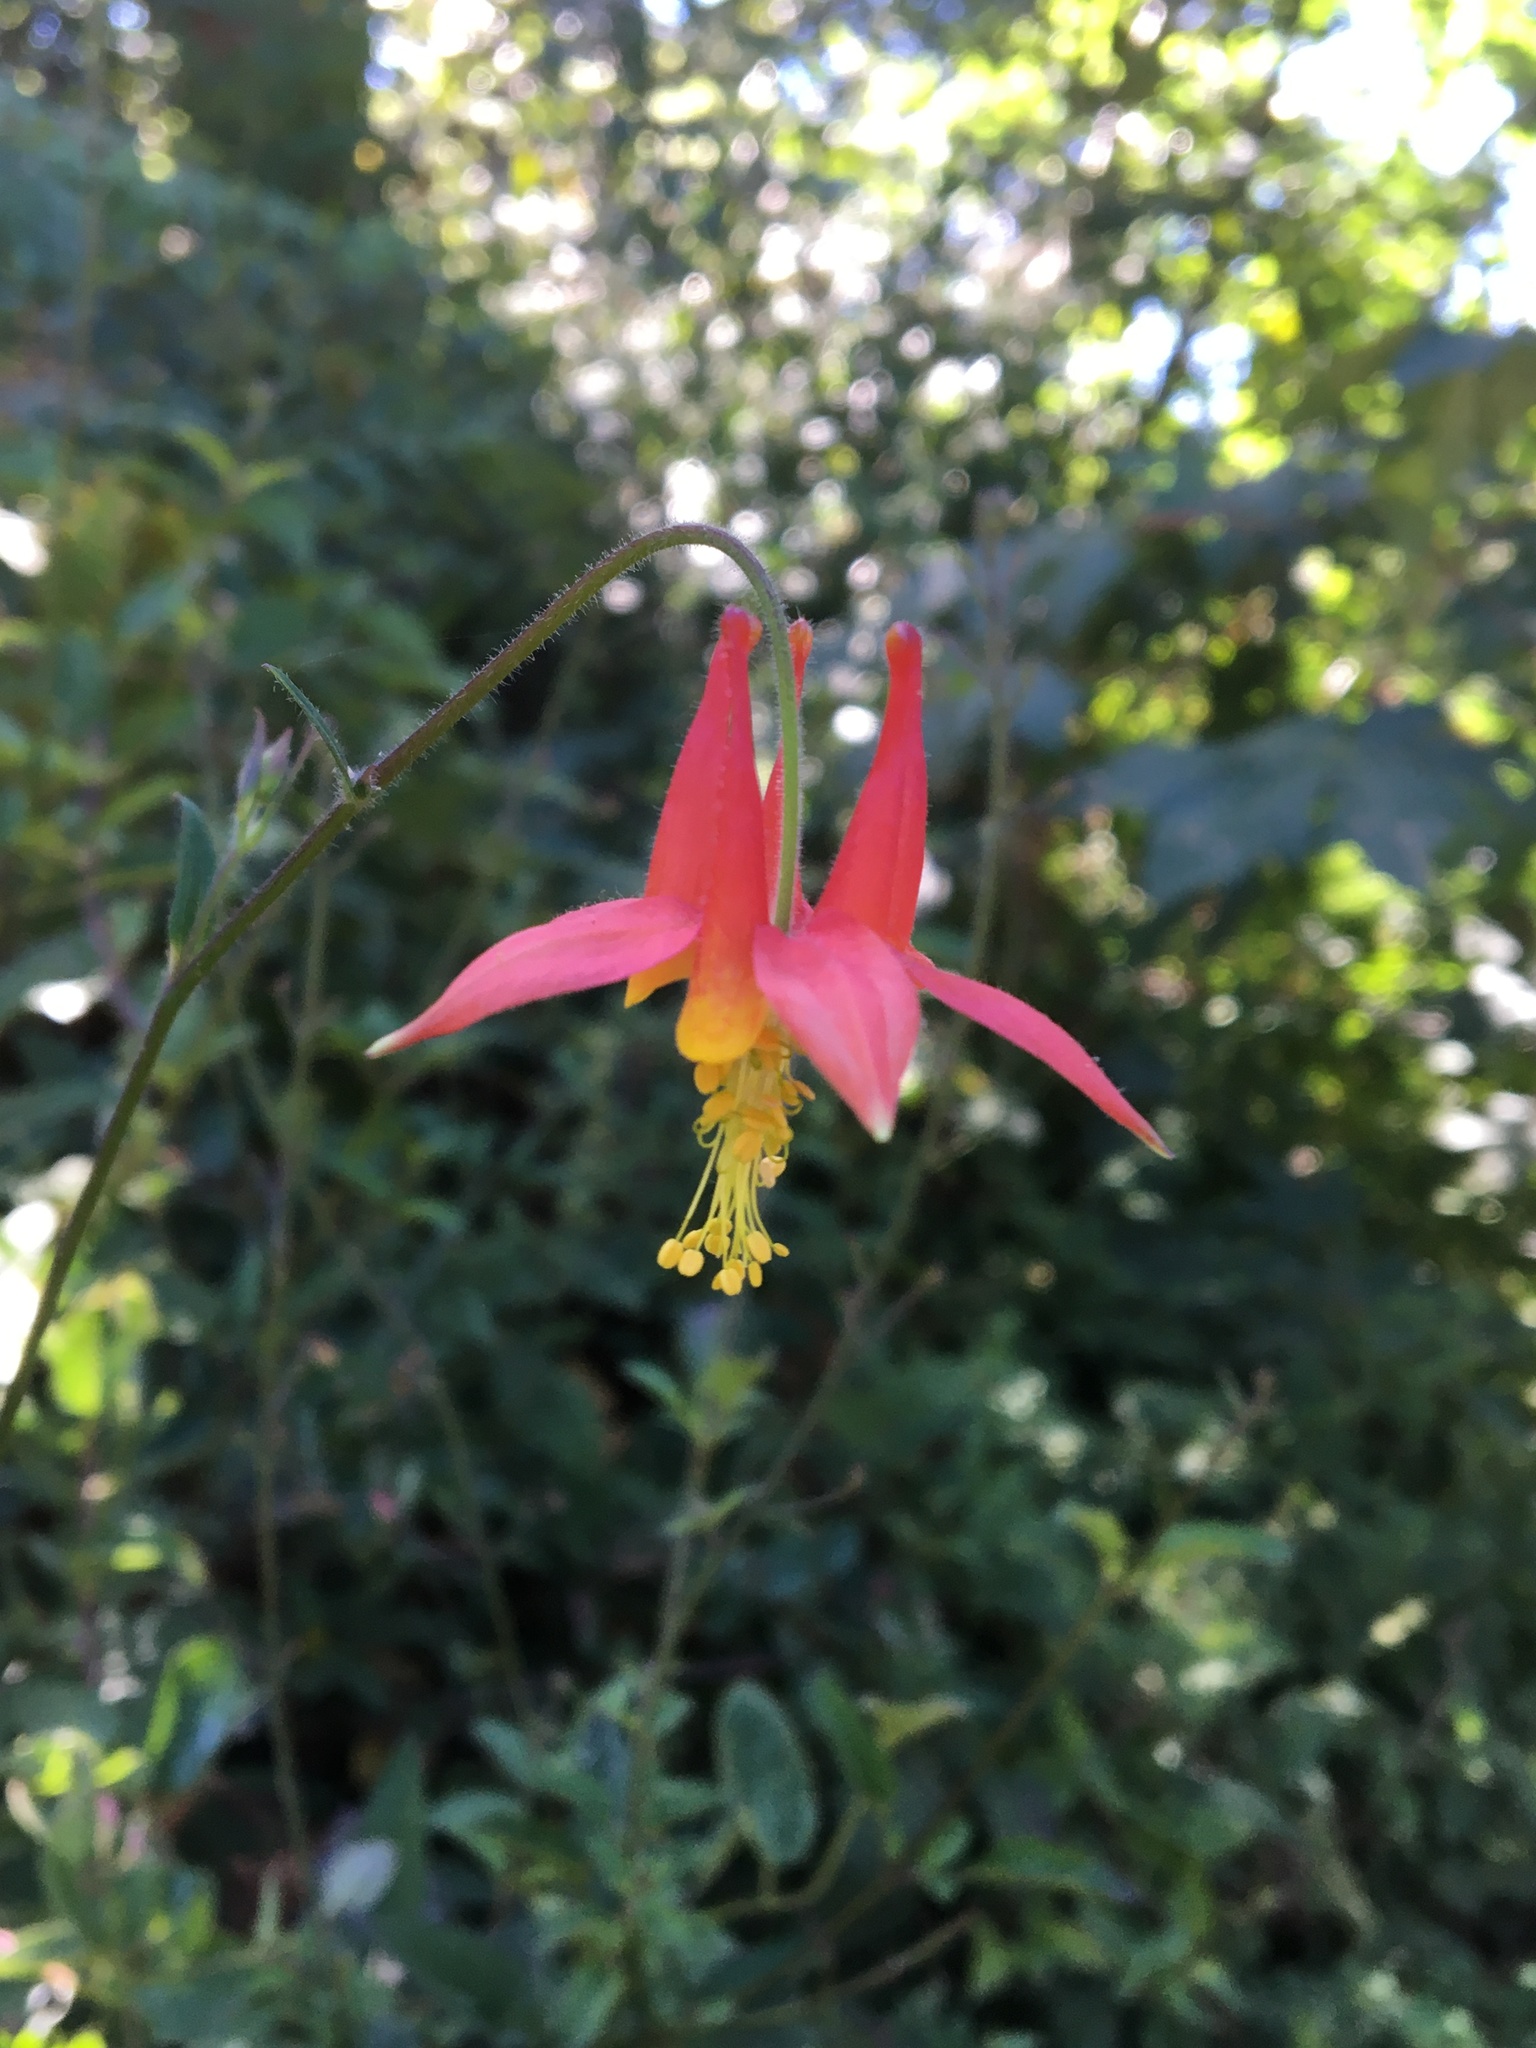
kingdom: Plantae
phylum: Tracheophyta
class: Magnoliopsida
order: Ranunculales
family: Ranunculaceae
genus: Aquilegia
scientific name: Aquilegia formosa
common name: Sitka columbine
